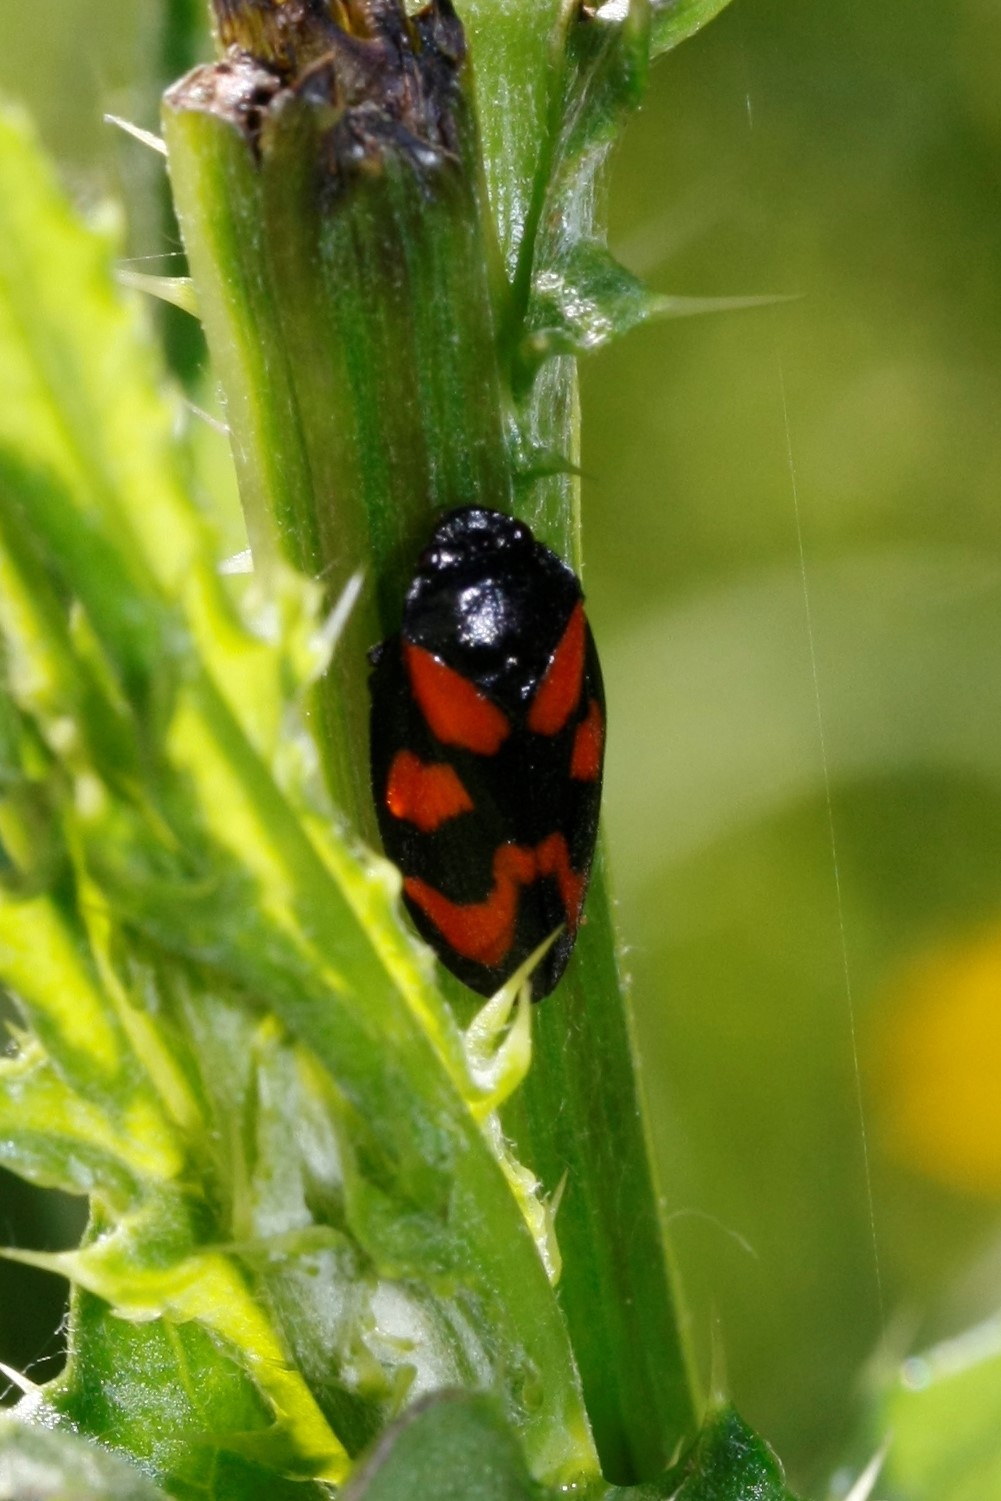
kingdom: Animalia
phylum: Arthropoda
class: Insecta
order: Hemiptera
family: Cercopidae
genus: Cercopis
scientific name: Cercopis vulnerata
